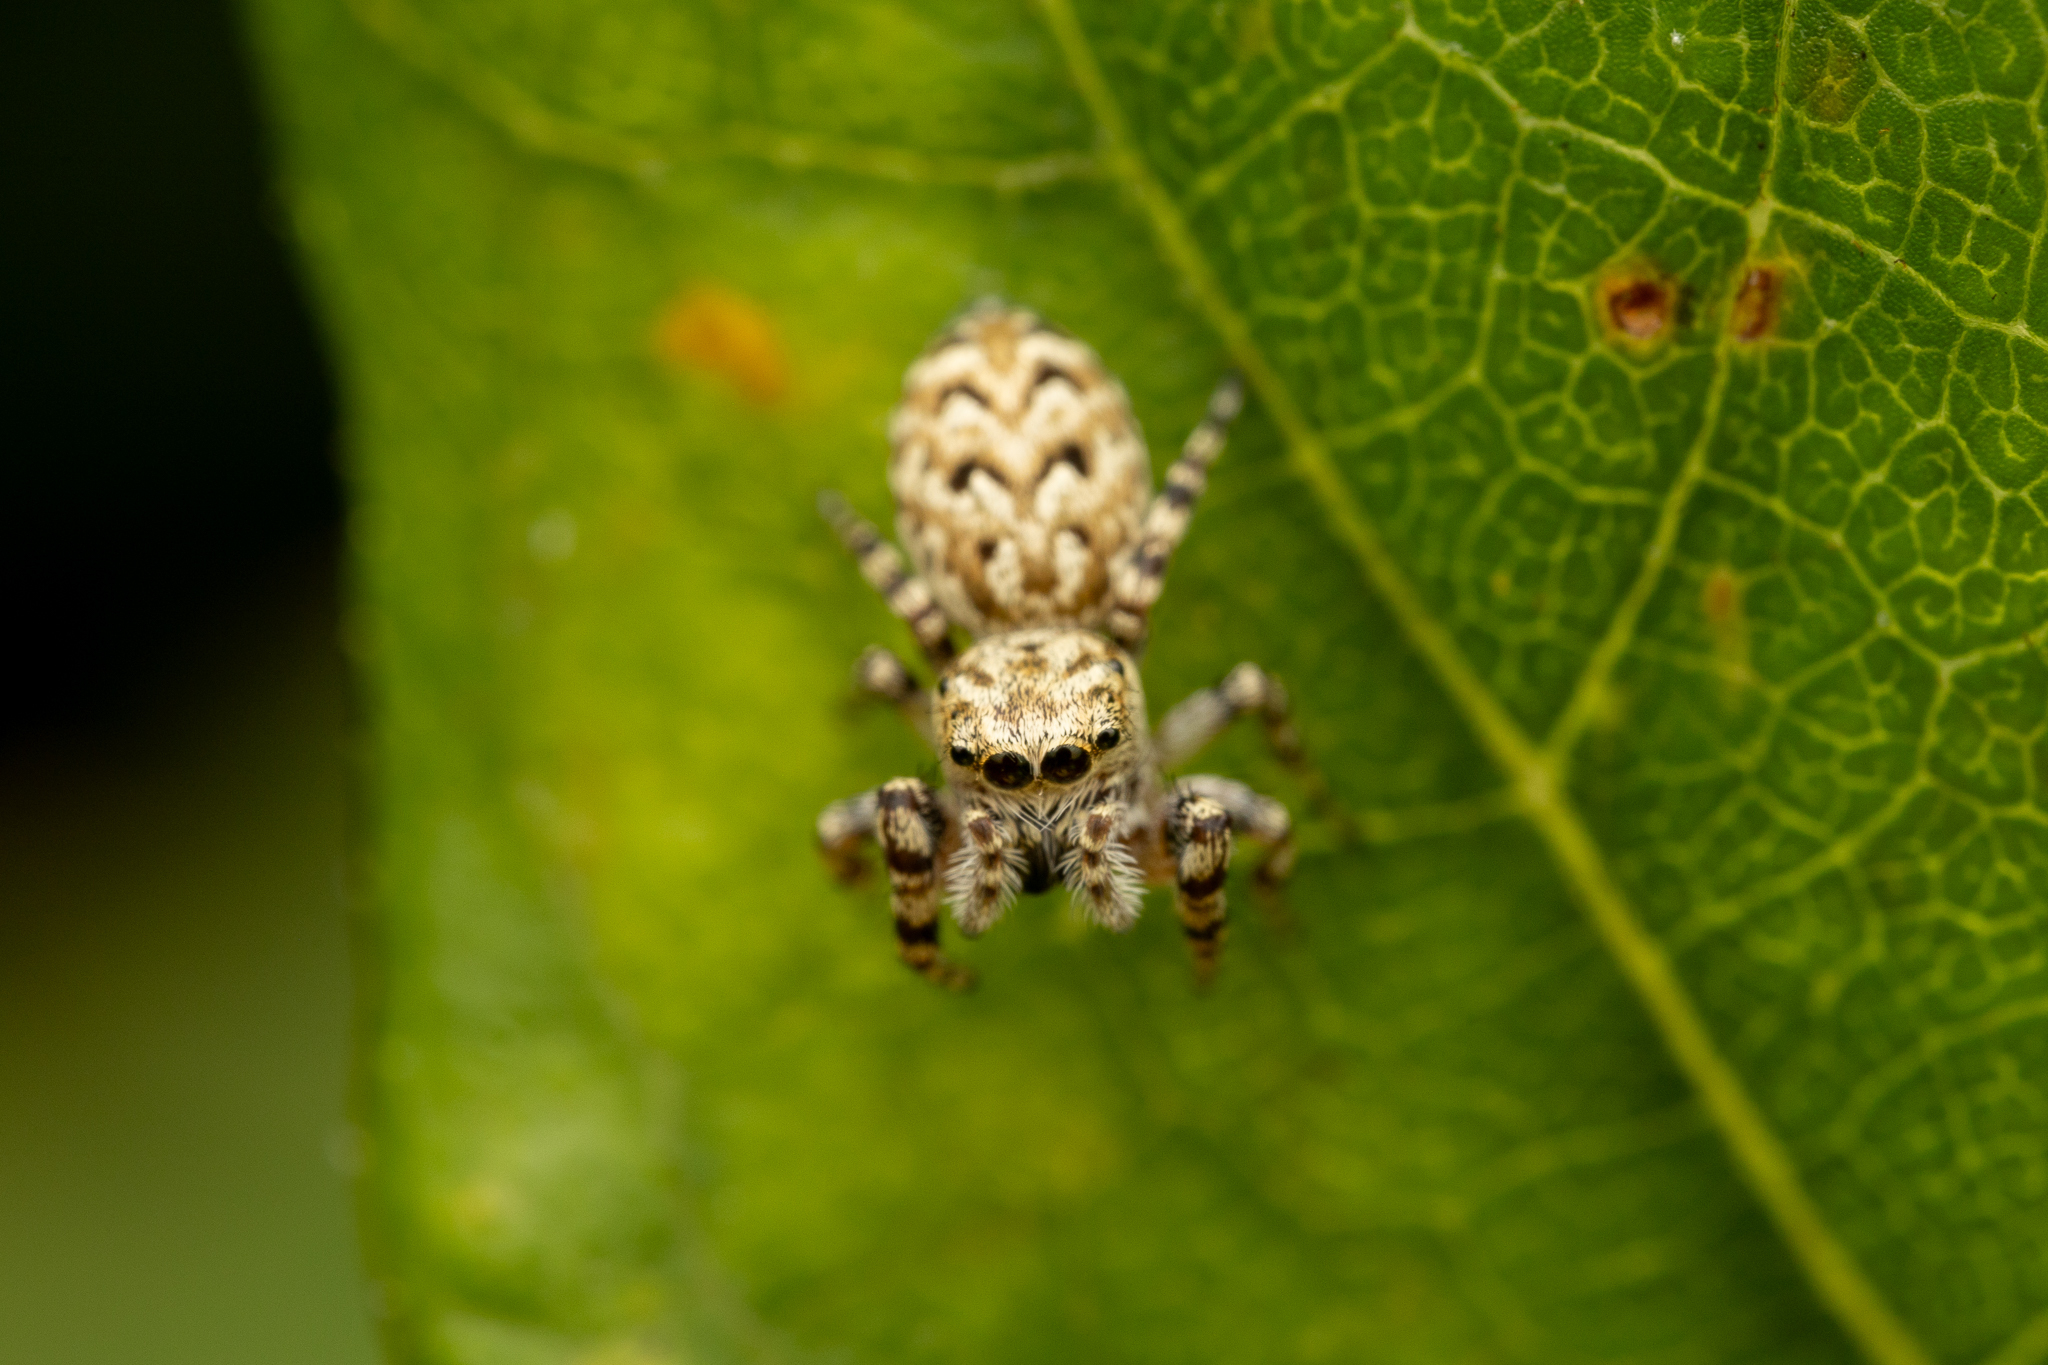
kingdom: Animalia
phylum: Arthropoda
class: Arachnida
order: Araneae
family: Salticidae
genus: Pelegrina
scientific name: Pelegrina galathea
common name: Jumping spiders
